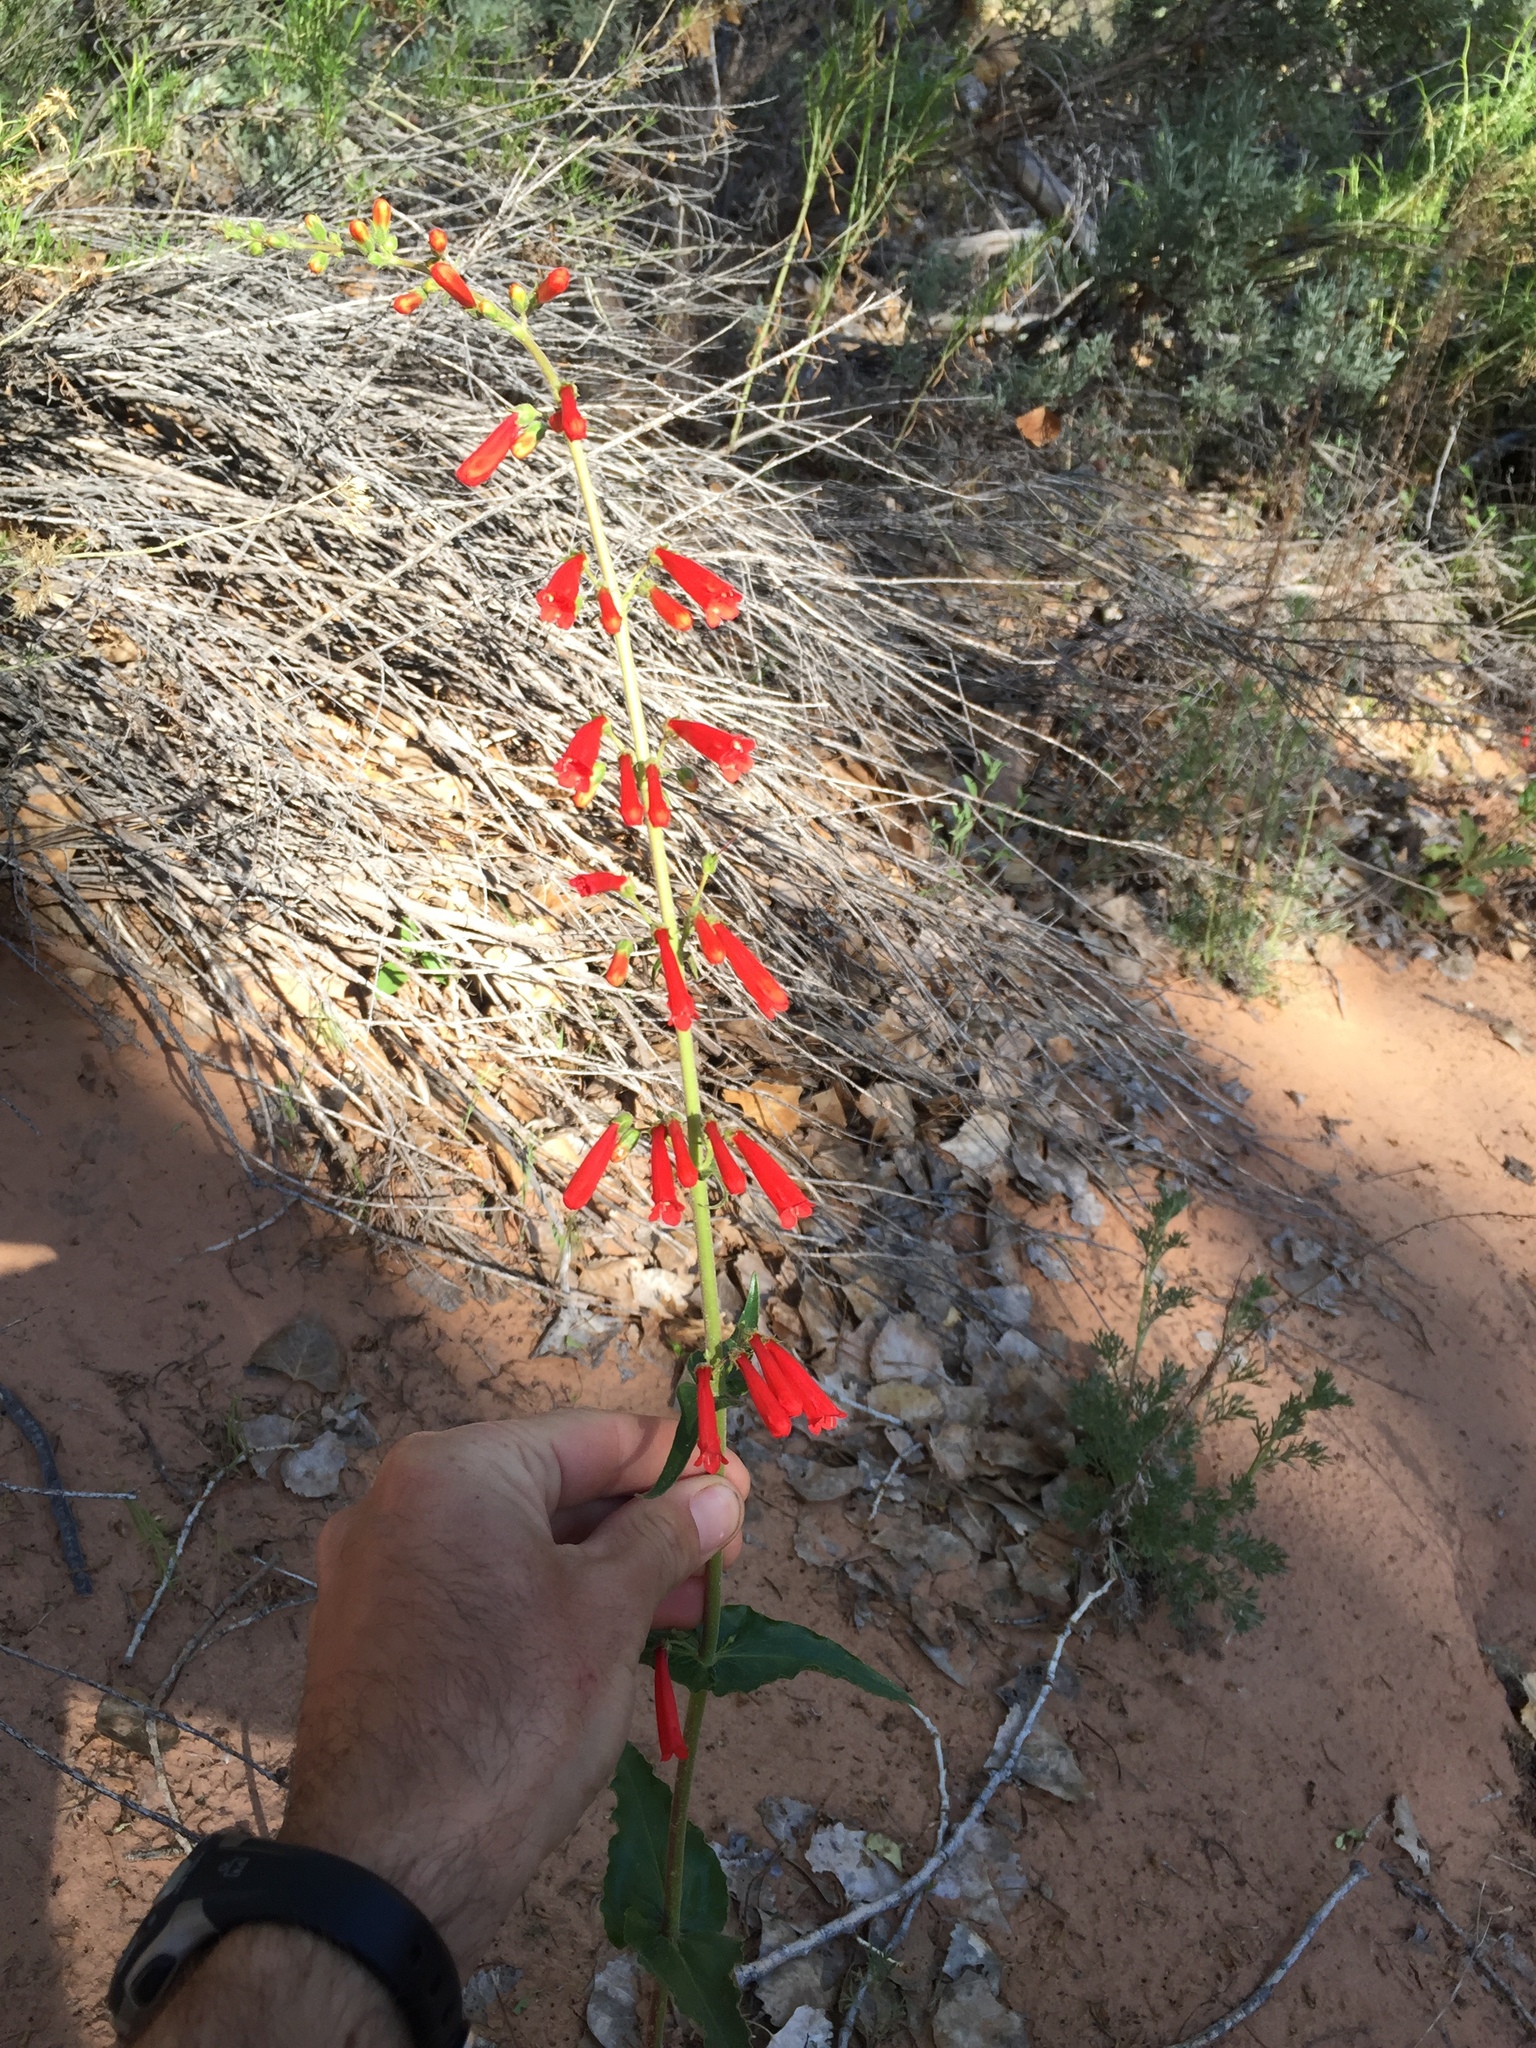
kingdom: Plantae
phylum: Tracheophyta
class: Magnoliopsida
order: Lamiales
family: Plantaginaceae
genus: Penstemon
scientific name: Penstemon eatonii
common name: Eaton's penstemon
